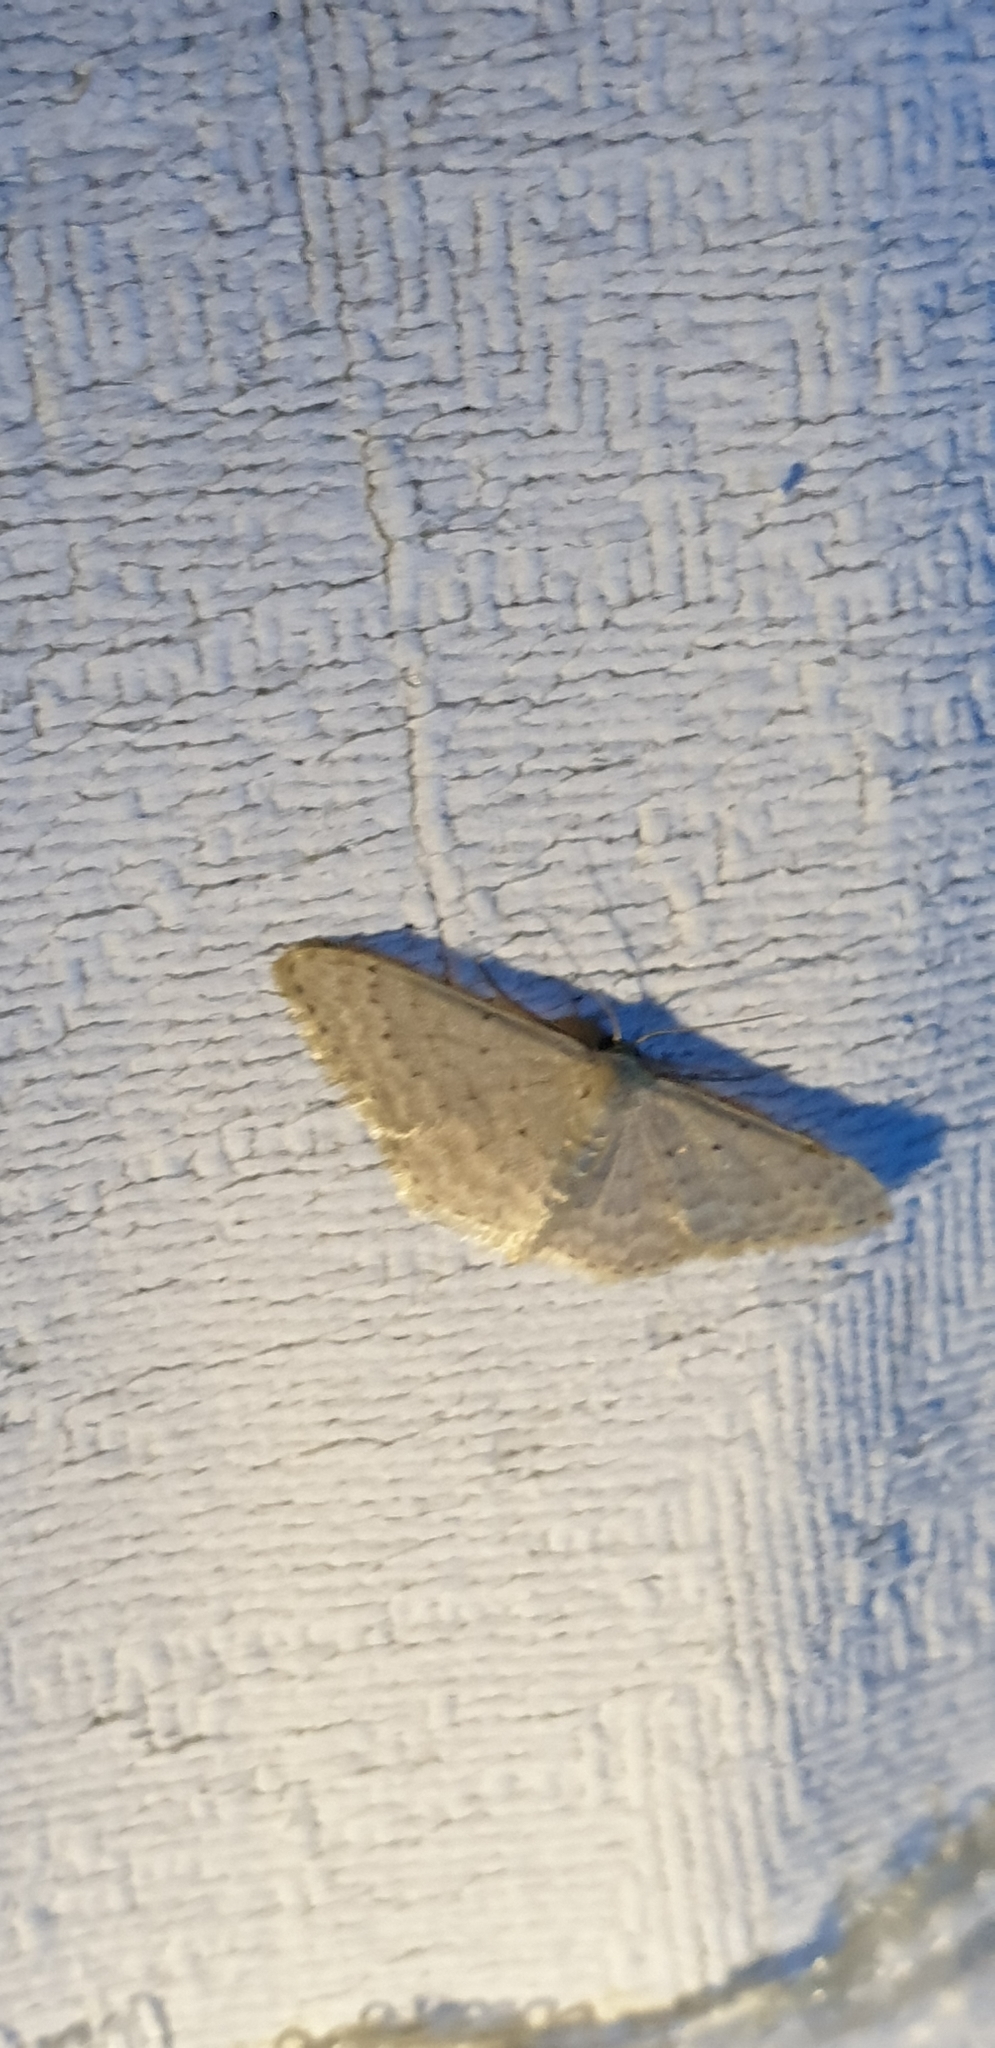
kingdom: Animalia
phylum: Arthropoda
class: Insecta
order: Lepidoptera
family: Geometridae
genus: Idaea
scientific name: Idaea philocosma
